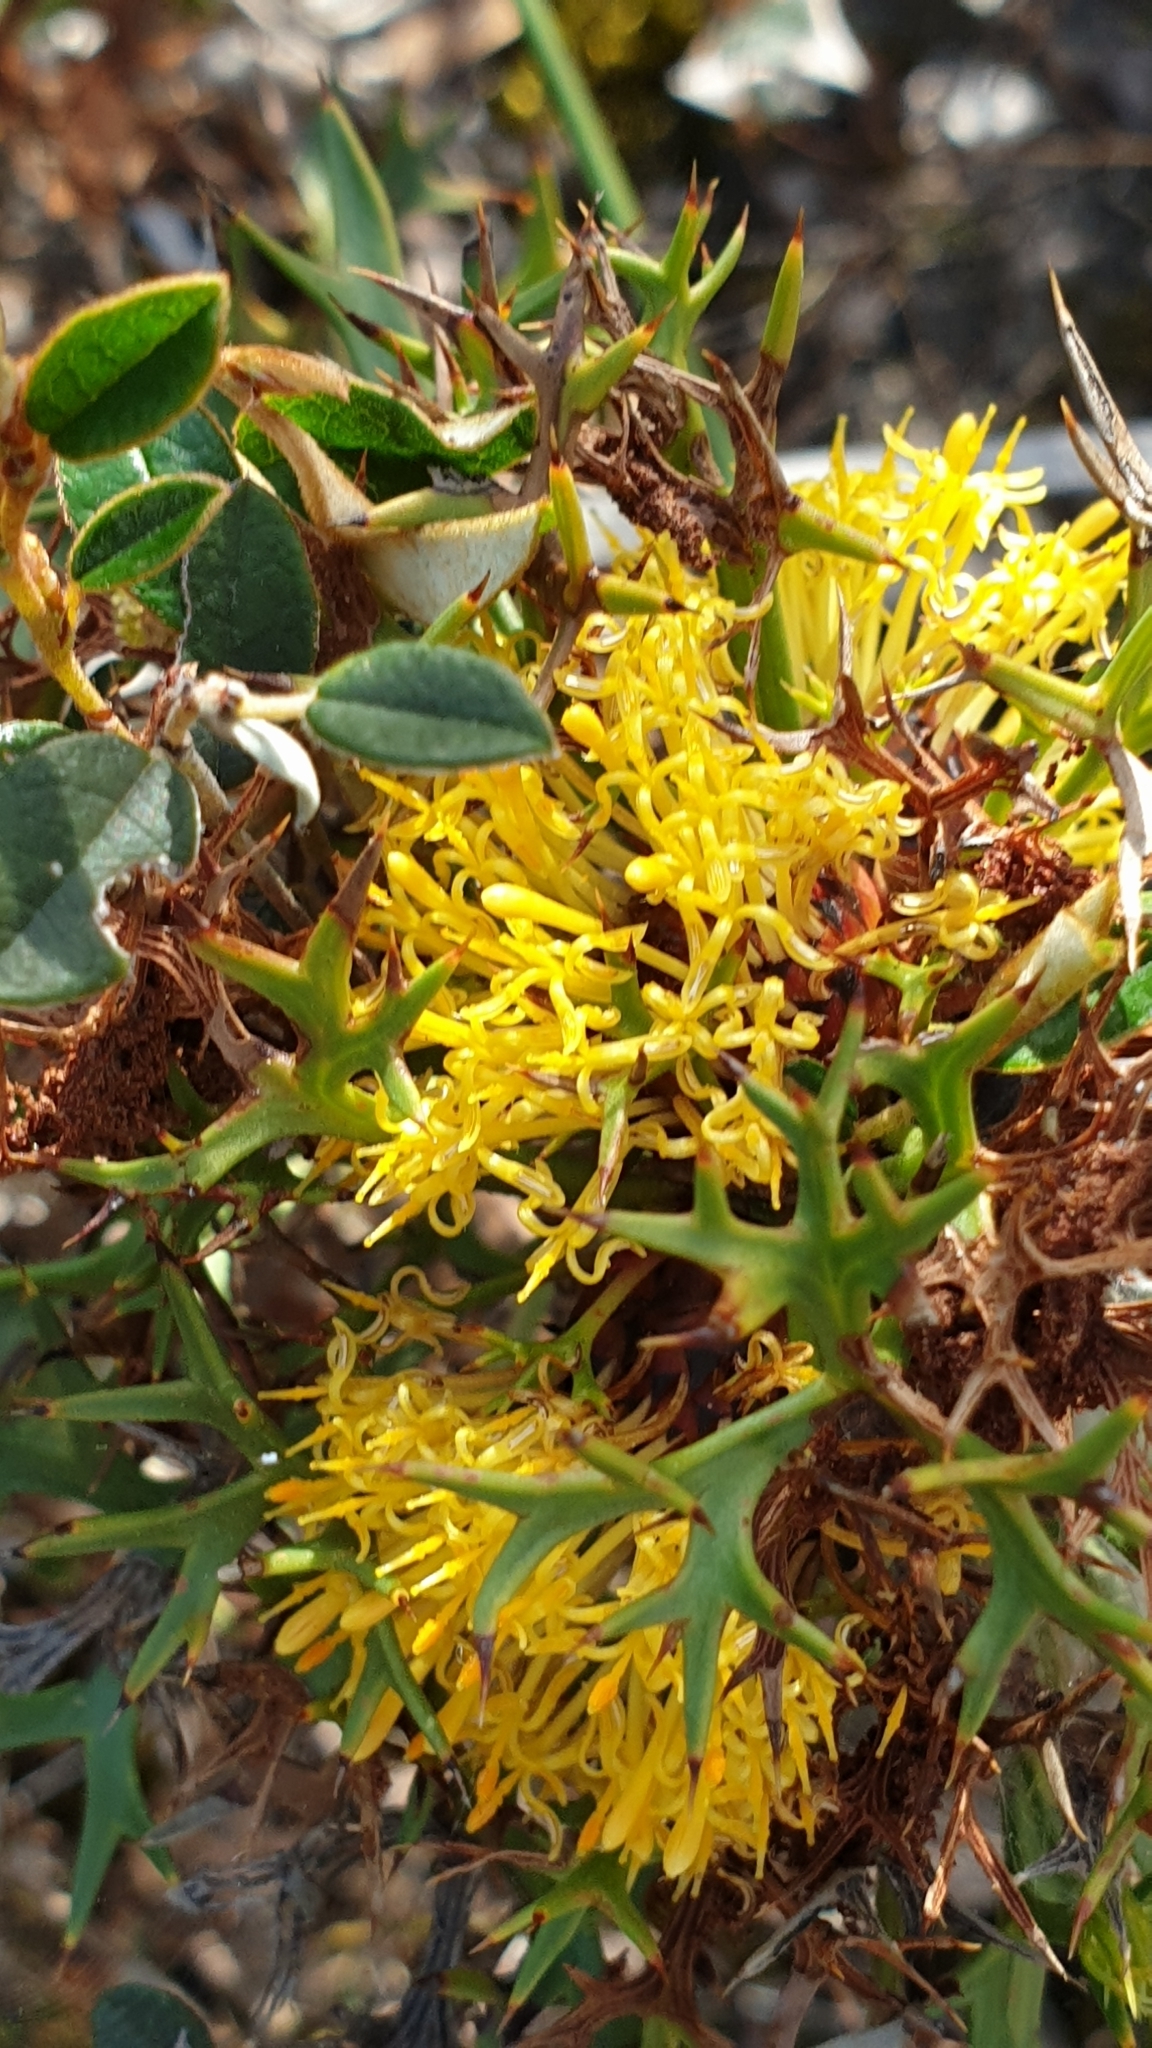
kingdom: Plantae
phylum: Tracheophyta
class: Magnoliopsida
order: Proteales
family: Proteaceae
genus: Isopogon
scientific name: Isopogon ceratophyllus
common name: Horny cone-bush
